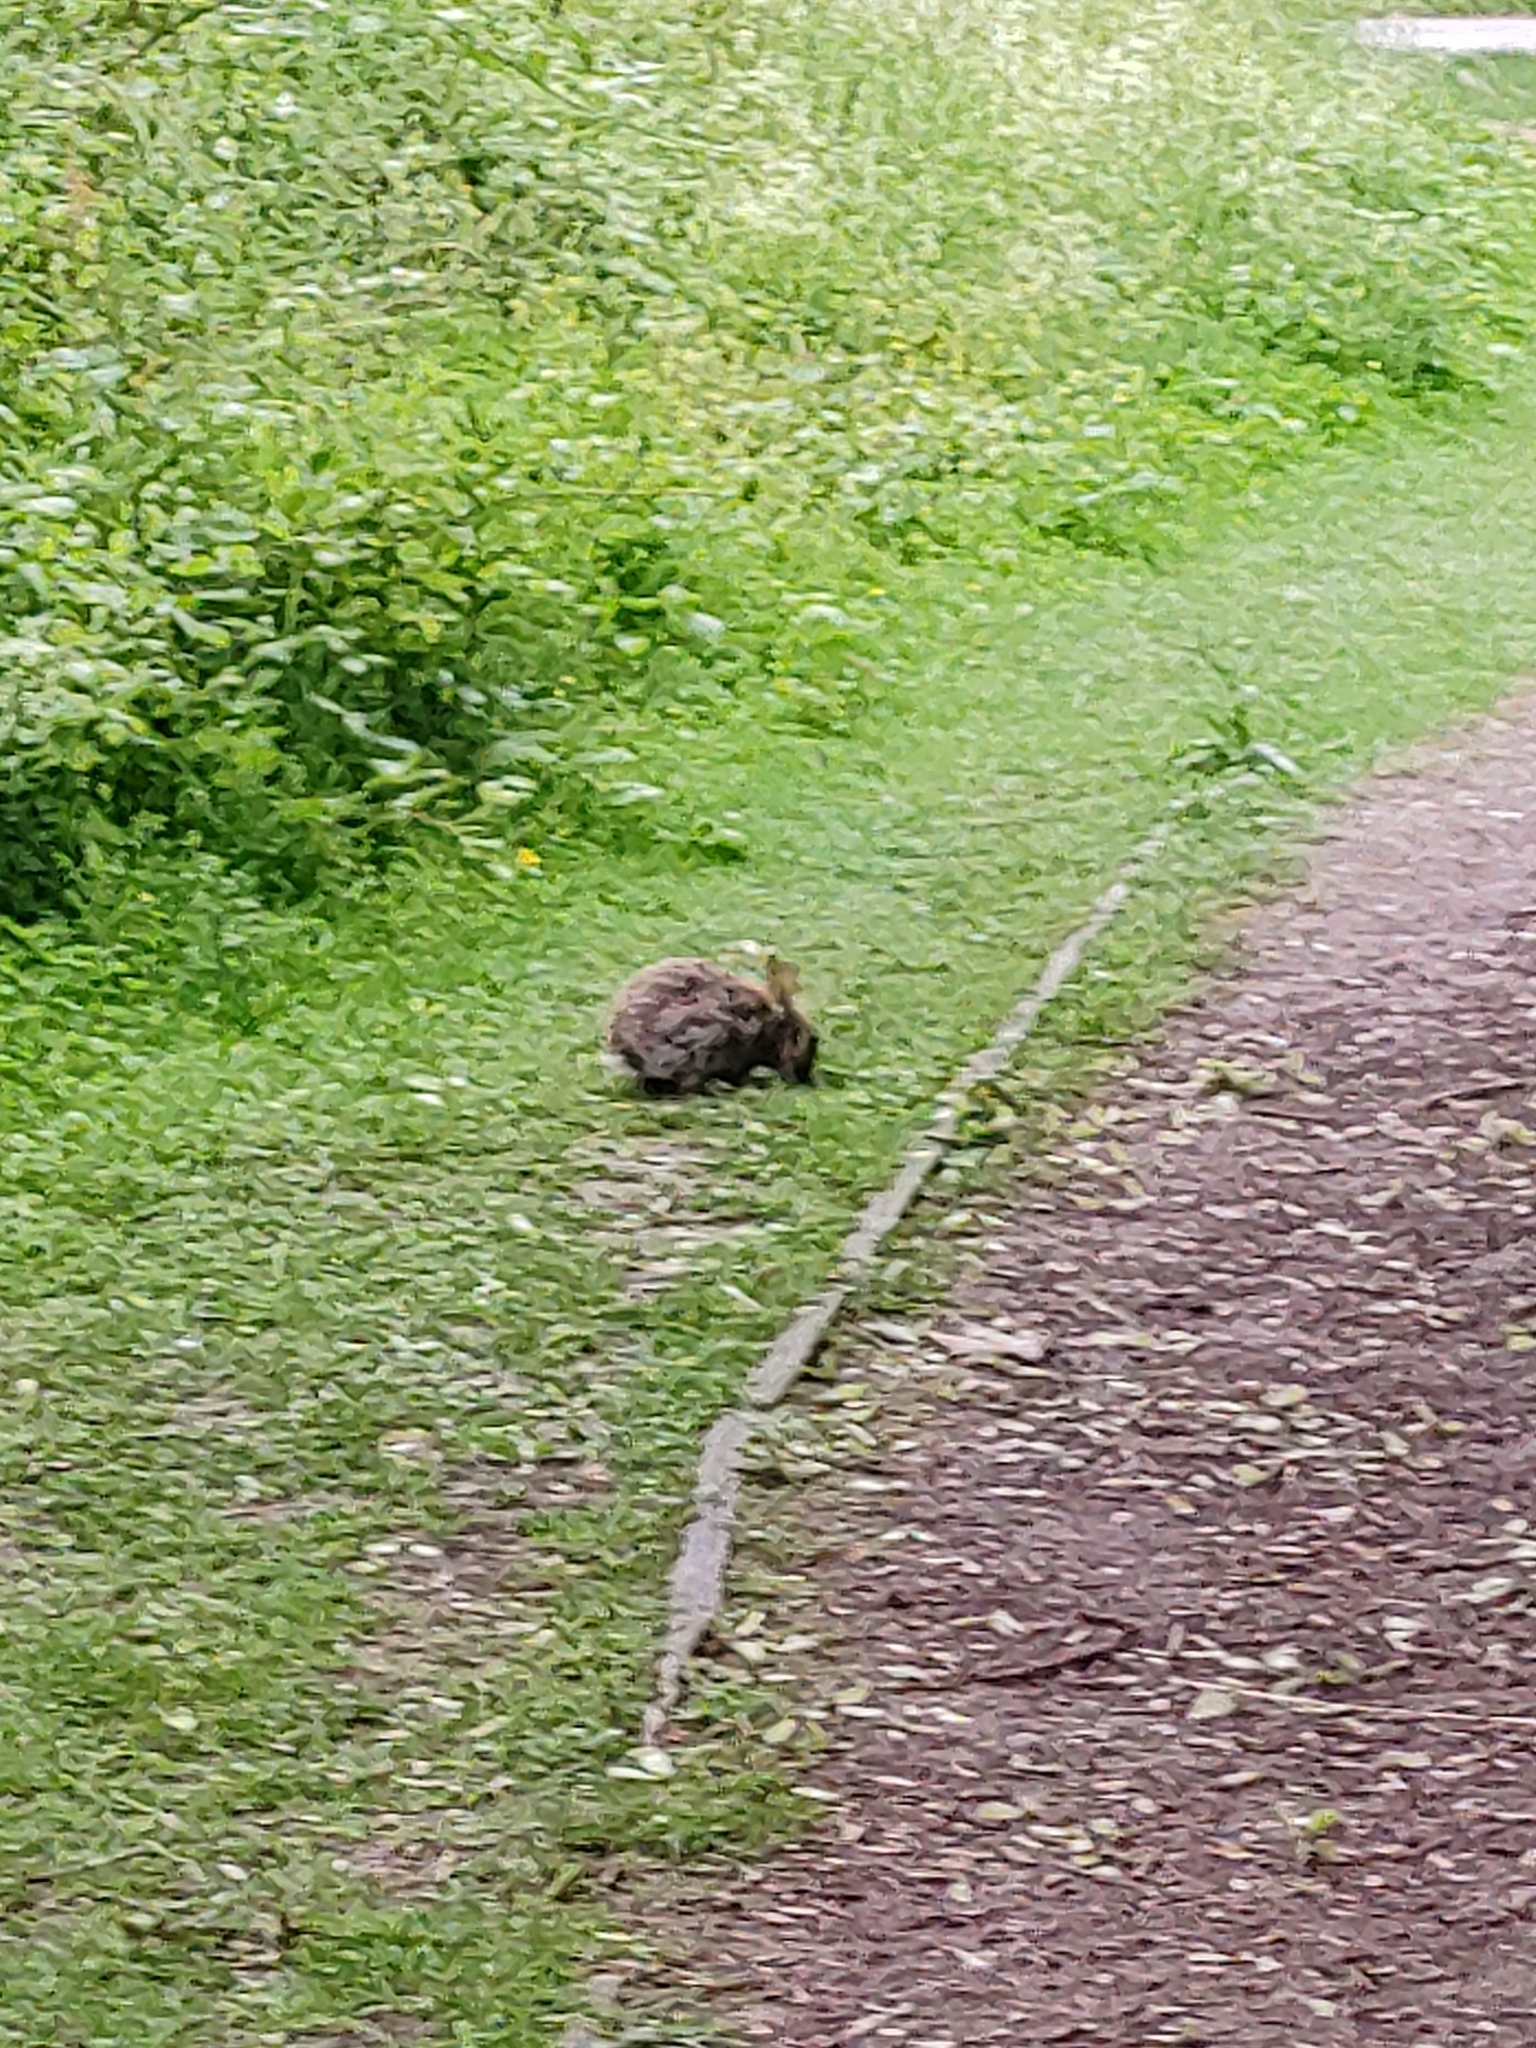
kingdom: Animalia
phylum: Chordata
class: Mammalia
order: Lagomorpha
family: Leporidae
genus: Oryctolagus
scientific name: Oryctolagus cuniculus
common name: European rabbit
